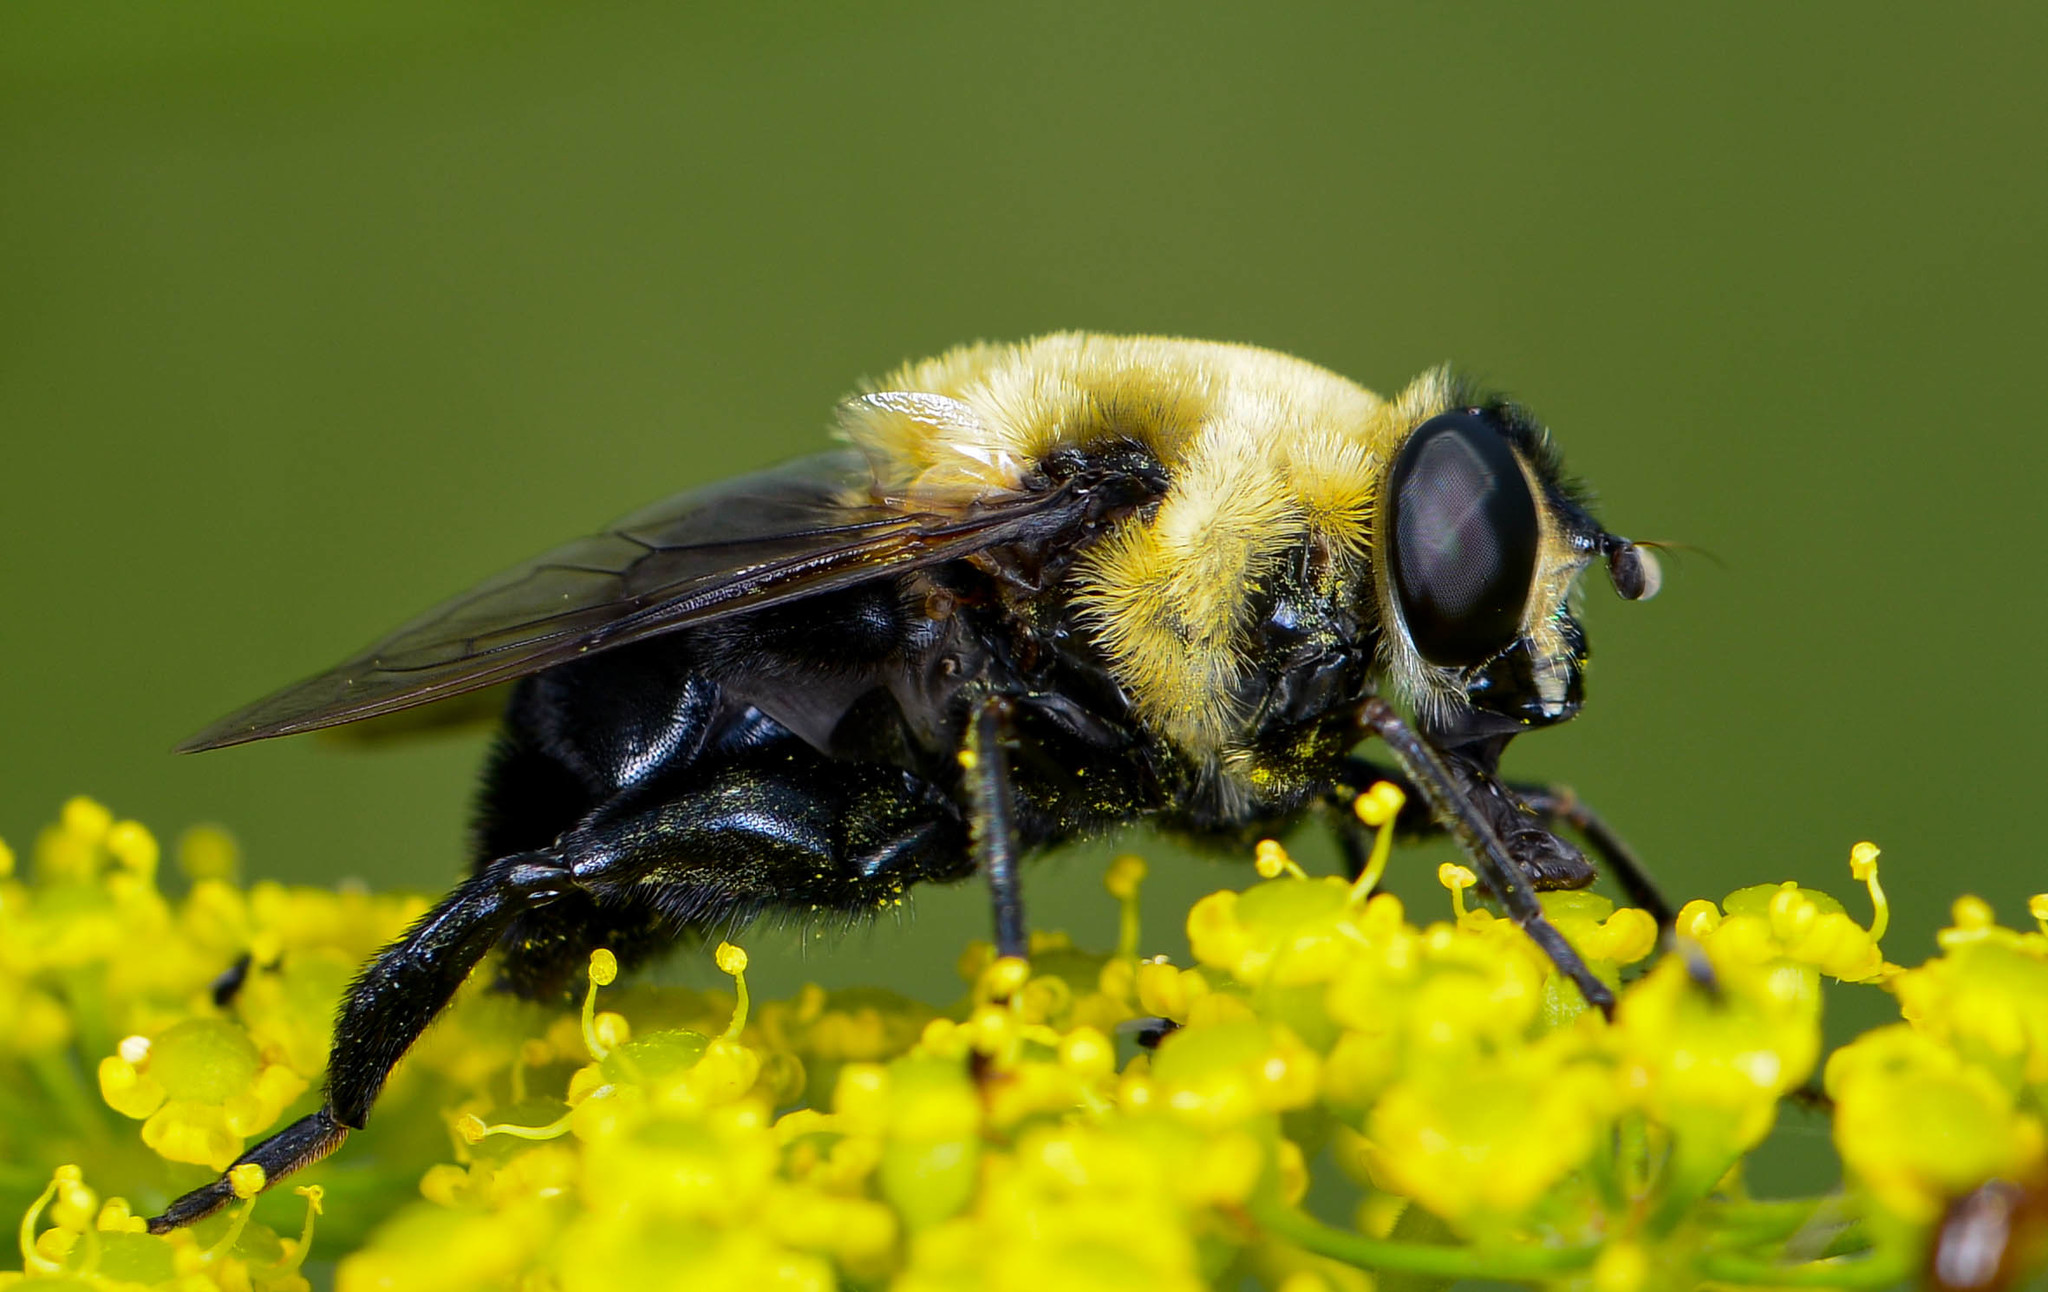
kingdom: Animalia
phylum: Arthropoda
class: Insecta
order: Diptera
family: Syrphidae
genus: Imatisma
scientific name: Imatisma bautias
